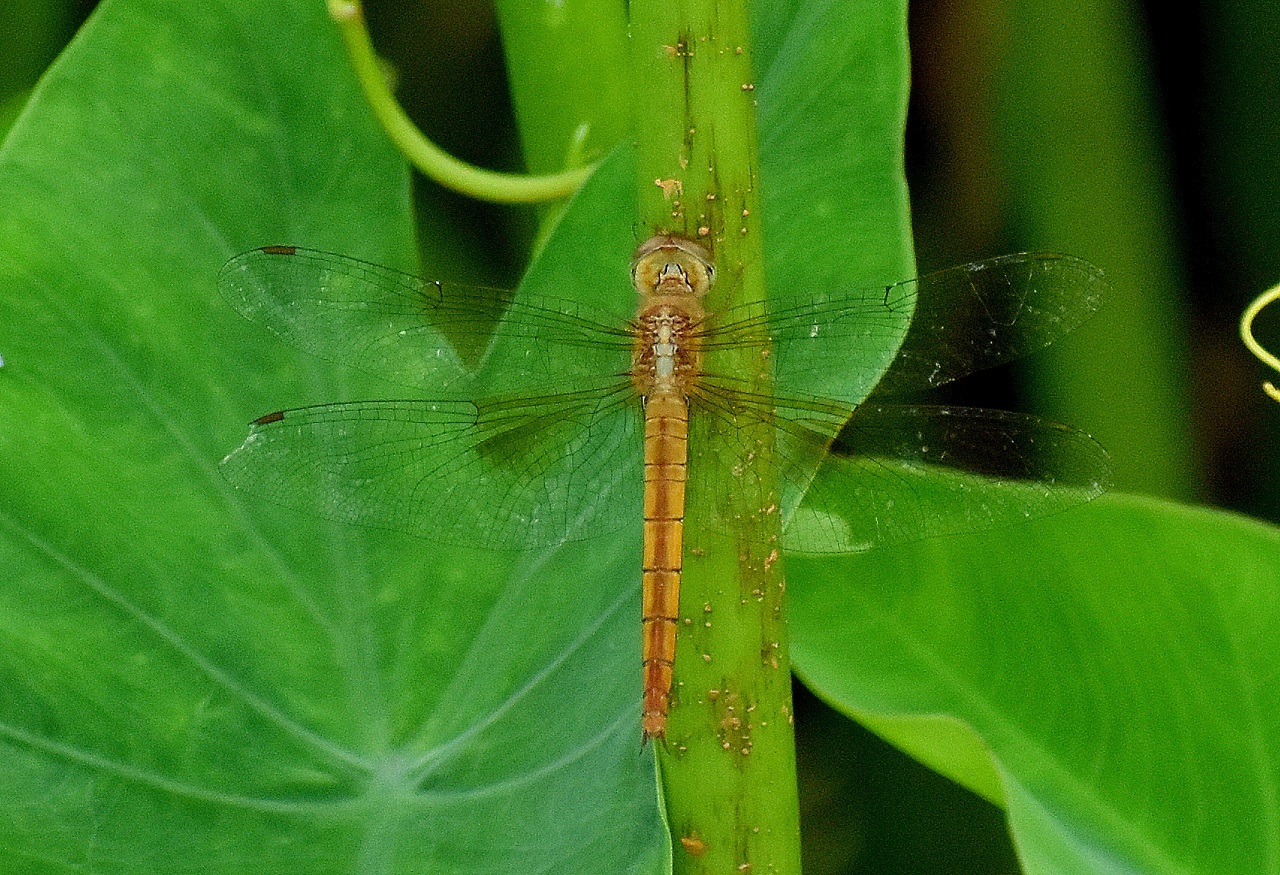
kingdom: Animalia
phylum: Arthropoda
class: Insecta
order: Odonata
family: Libellulidae
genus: Tholymis
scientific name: Tholymis tillarga
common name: Coral-tailed cloud wing
